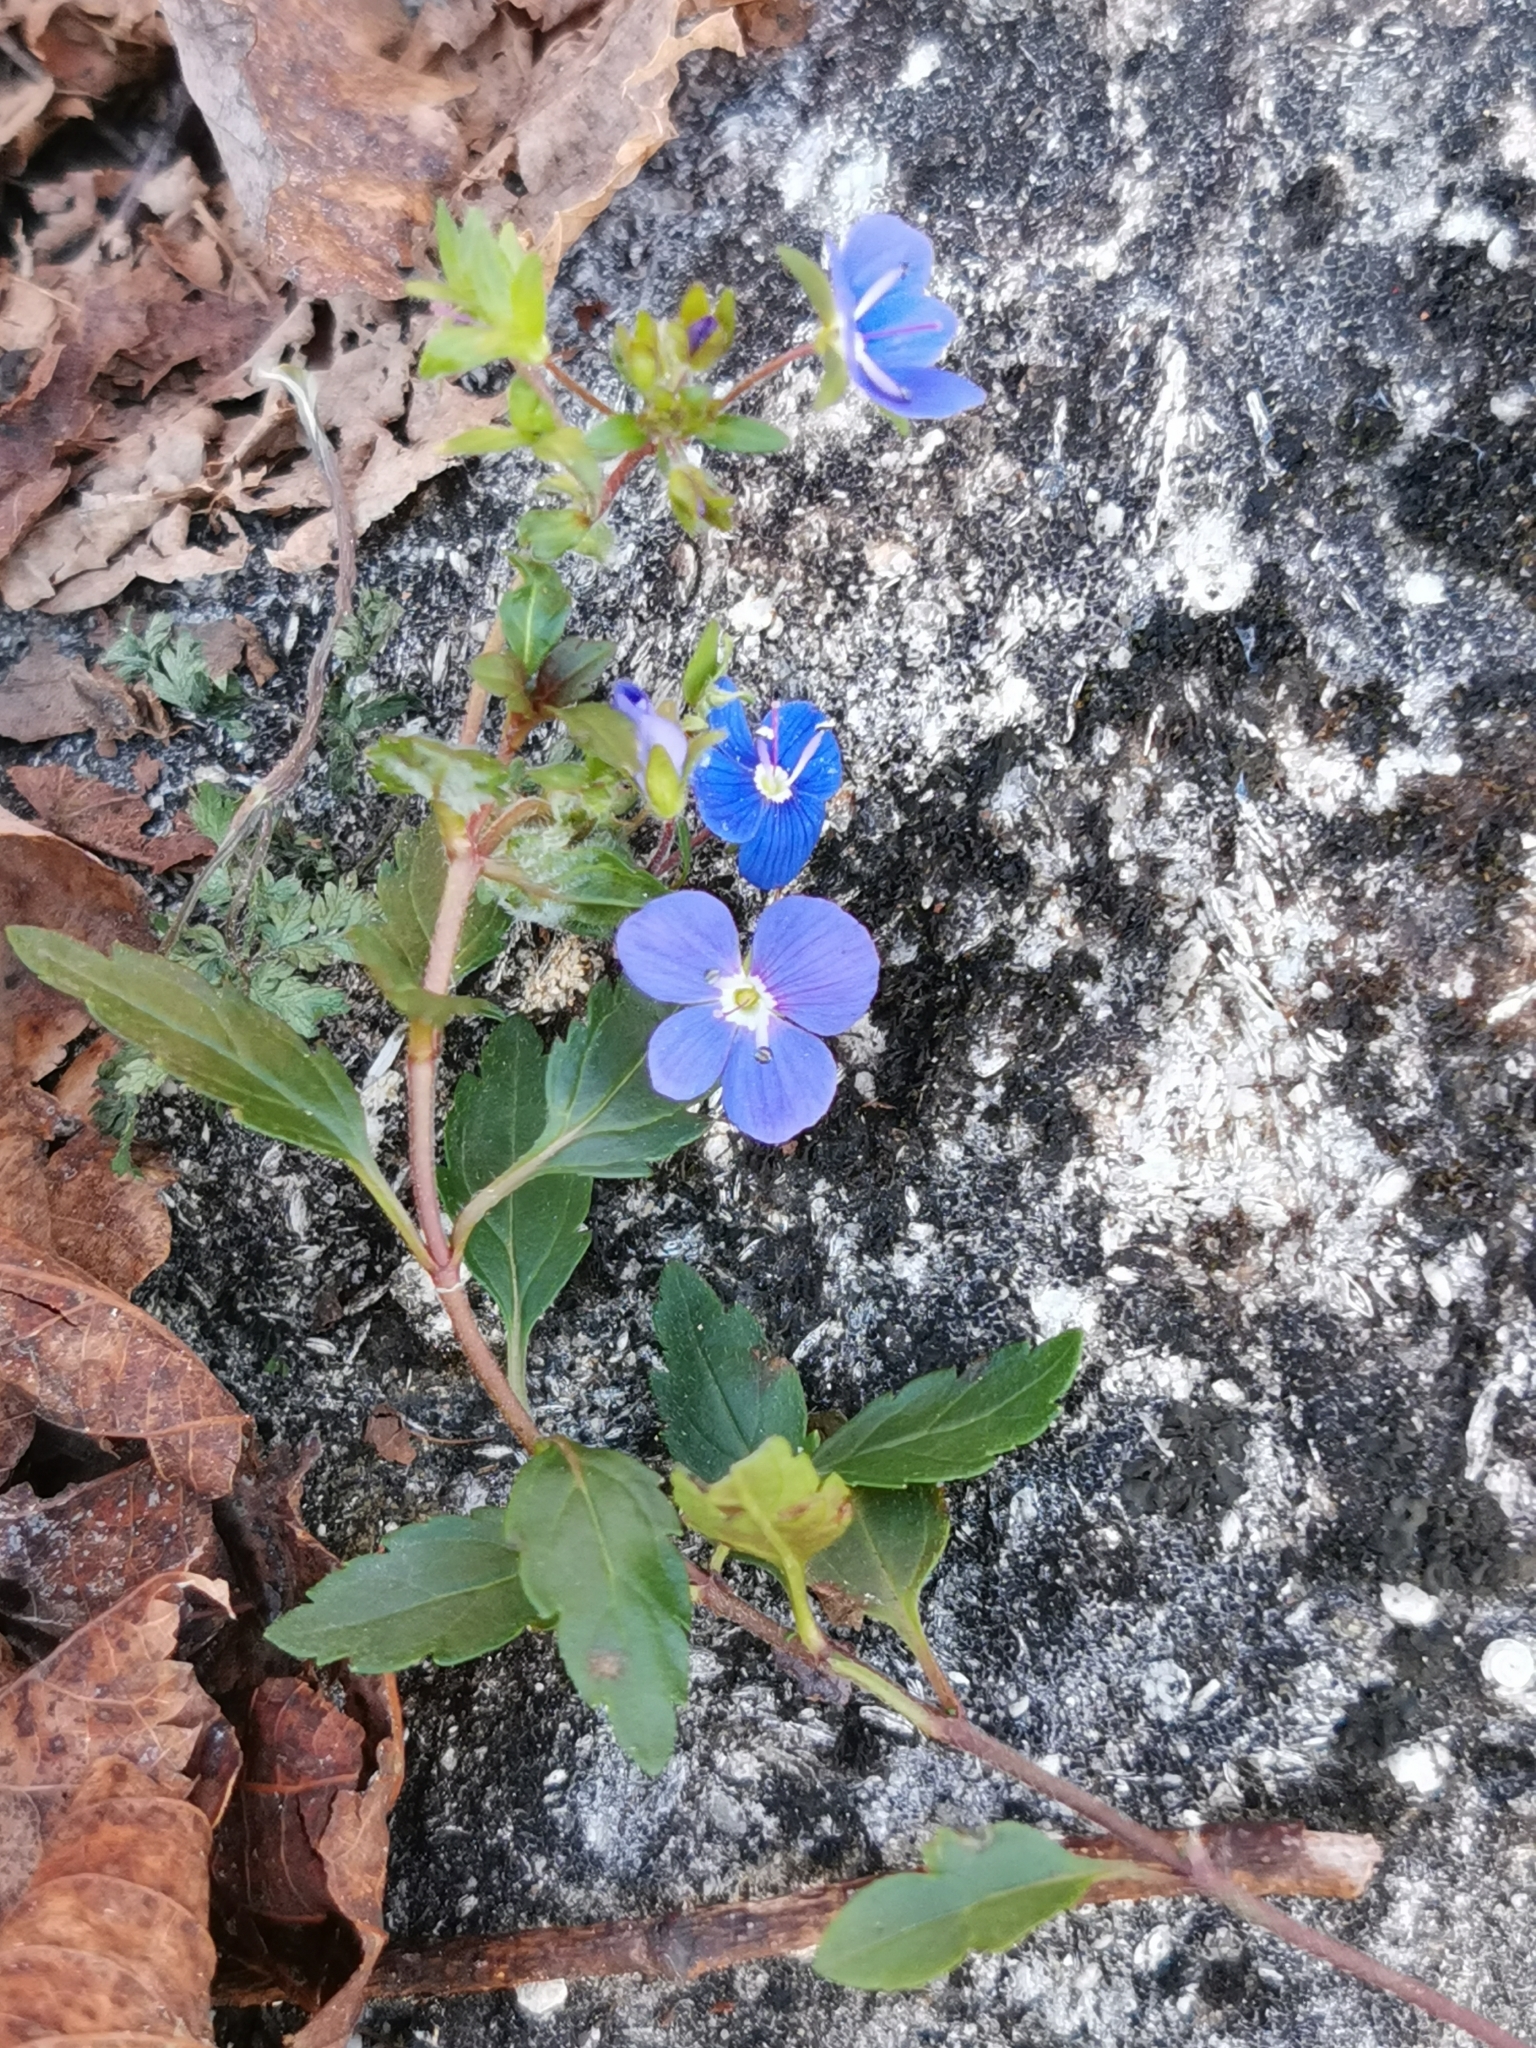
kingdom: Plantae
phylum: Tracheophyta
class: Magnoliopsida
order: Lamiales
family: Plantaginaceae
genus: Veronica
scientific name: Veronica
